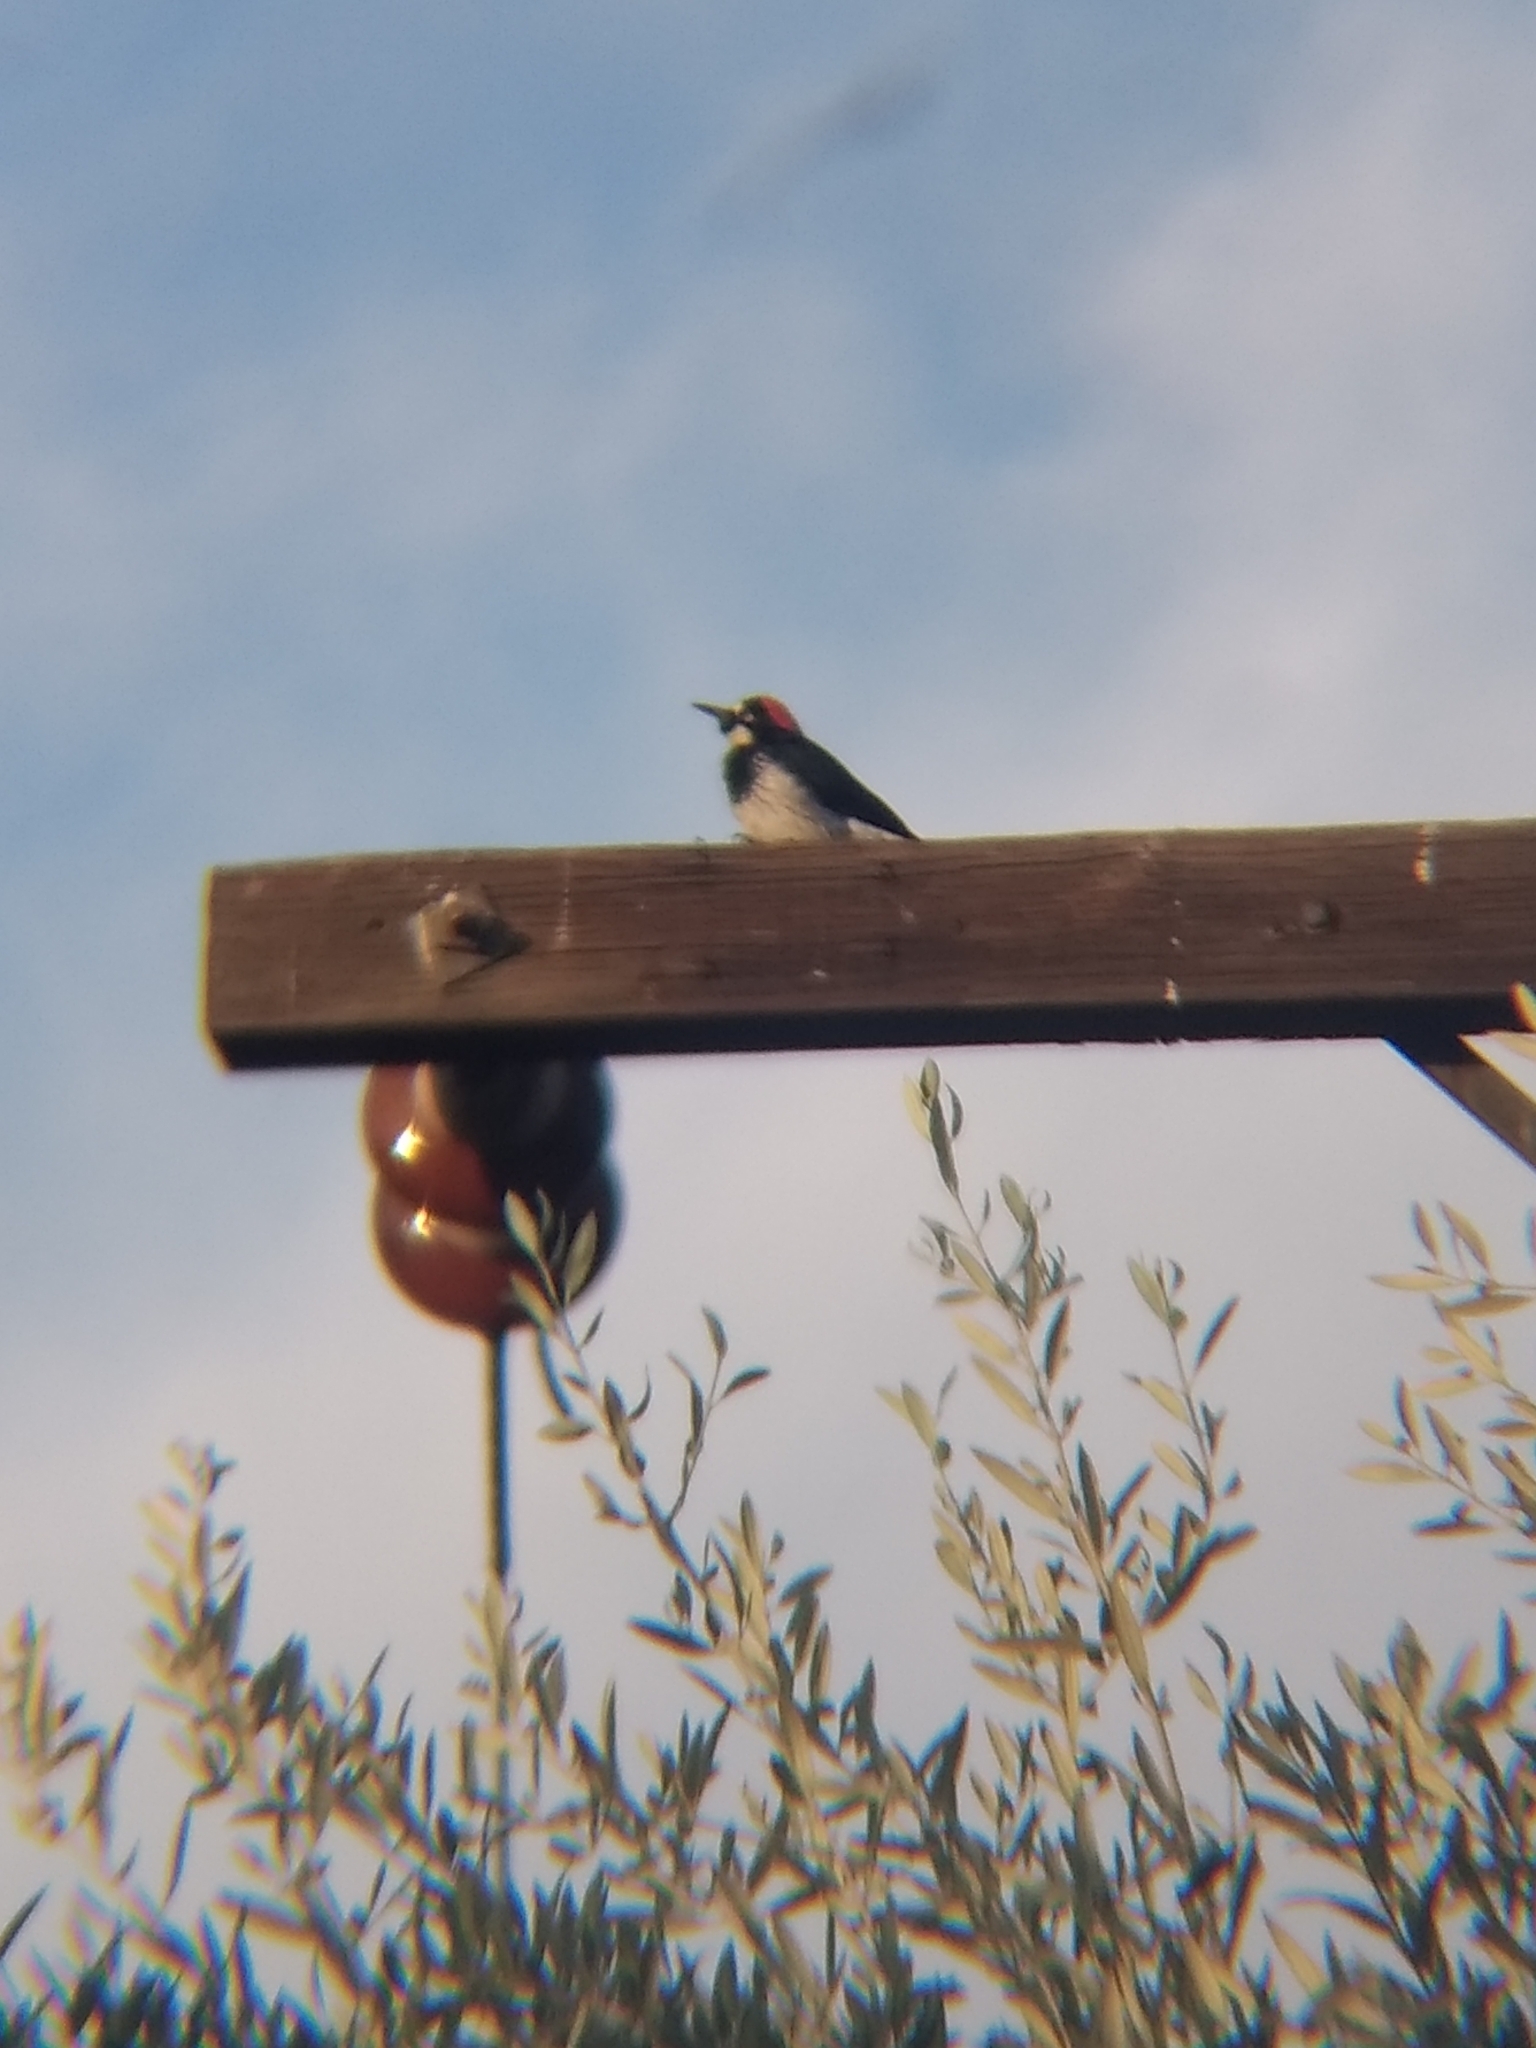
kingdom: Animalia
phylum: Chordata
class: Aves
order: Piciformes
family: Picidae
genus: Melanerpes
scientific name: Melanerpes formicivorus
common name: Acorn woodpecker
